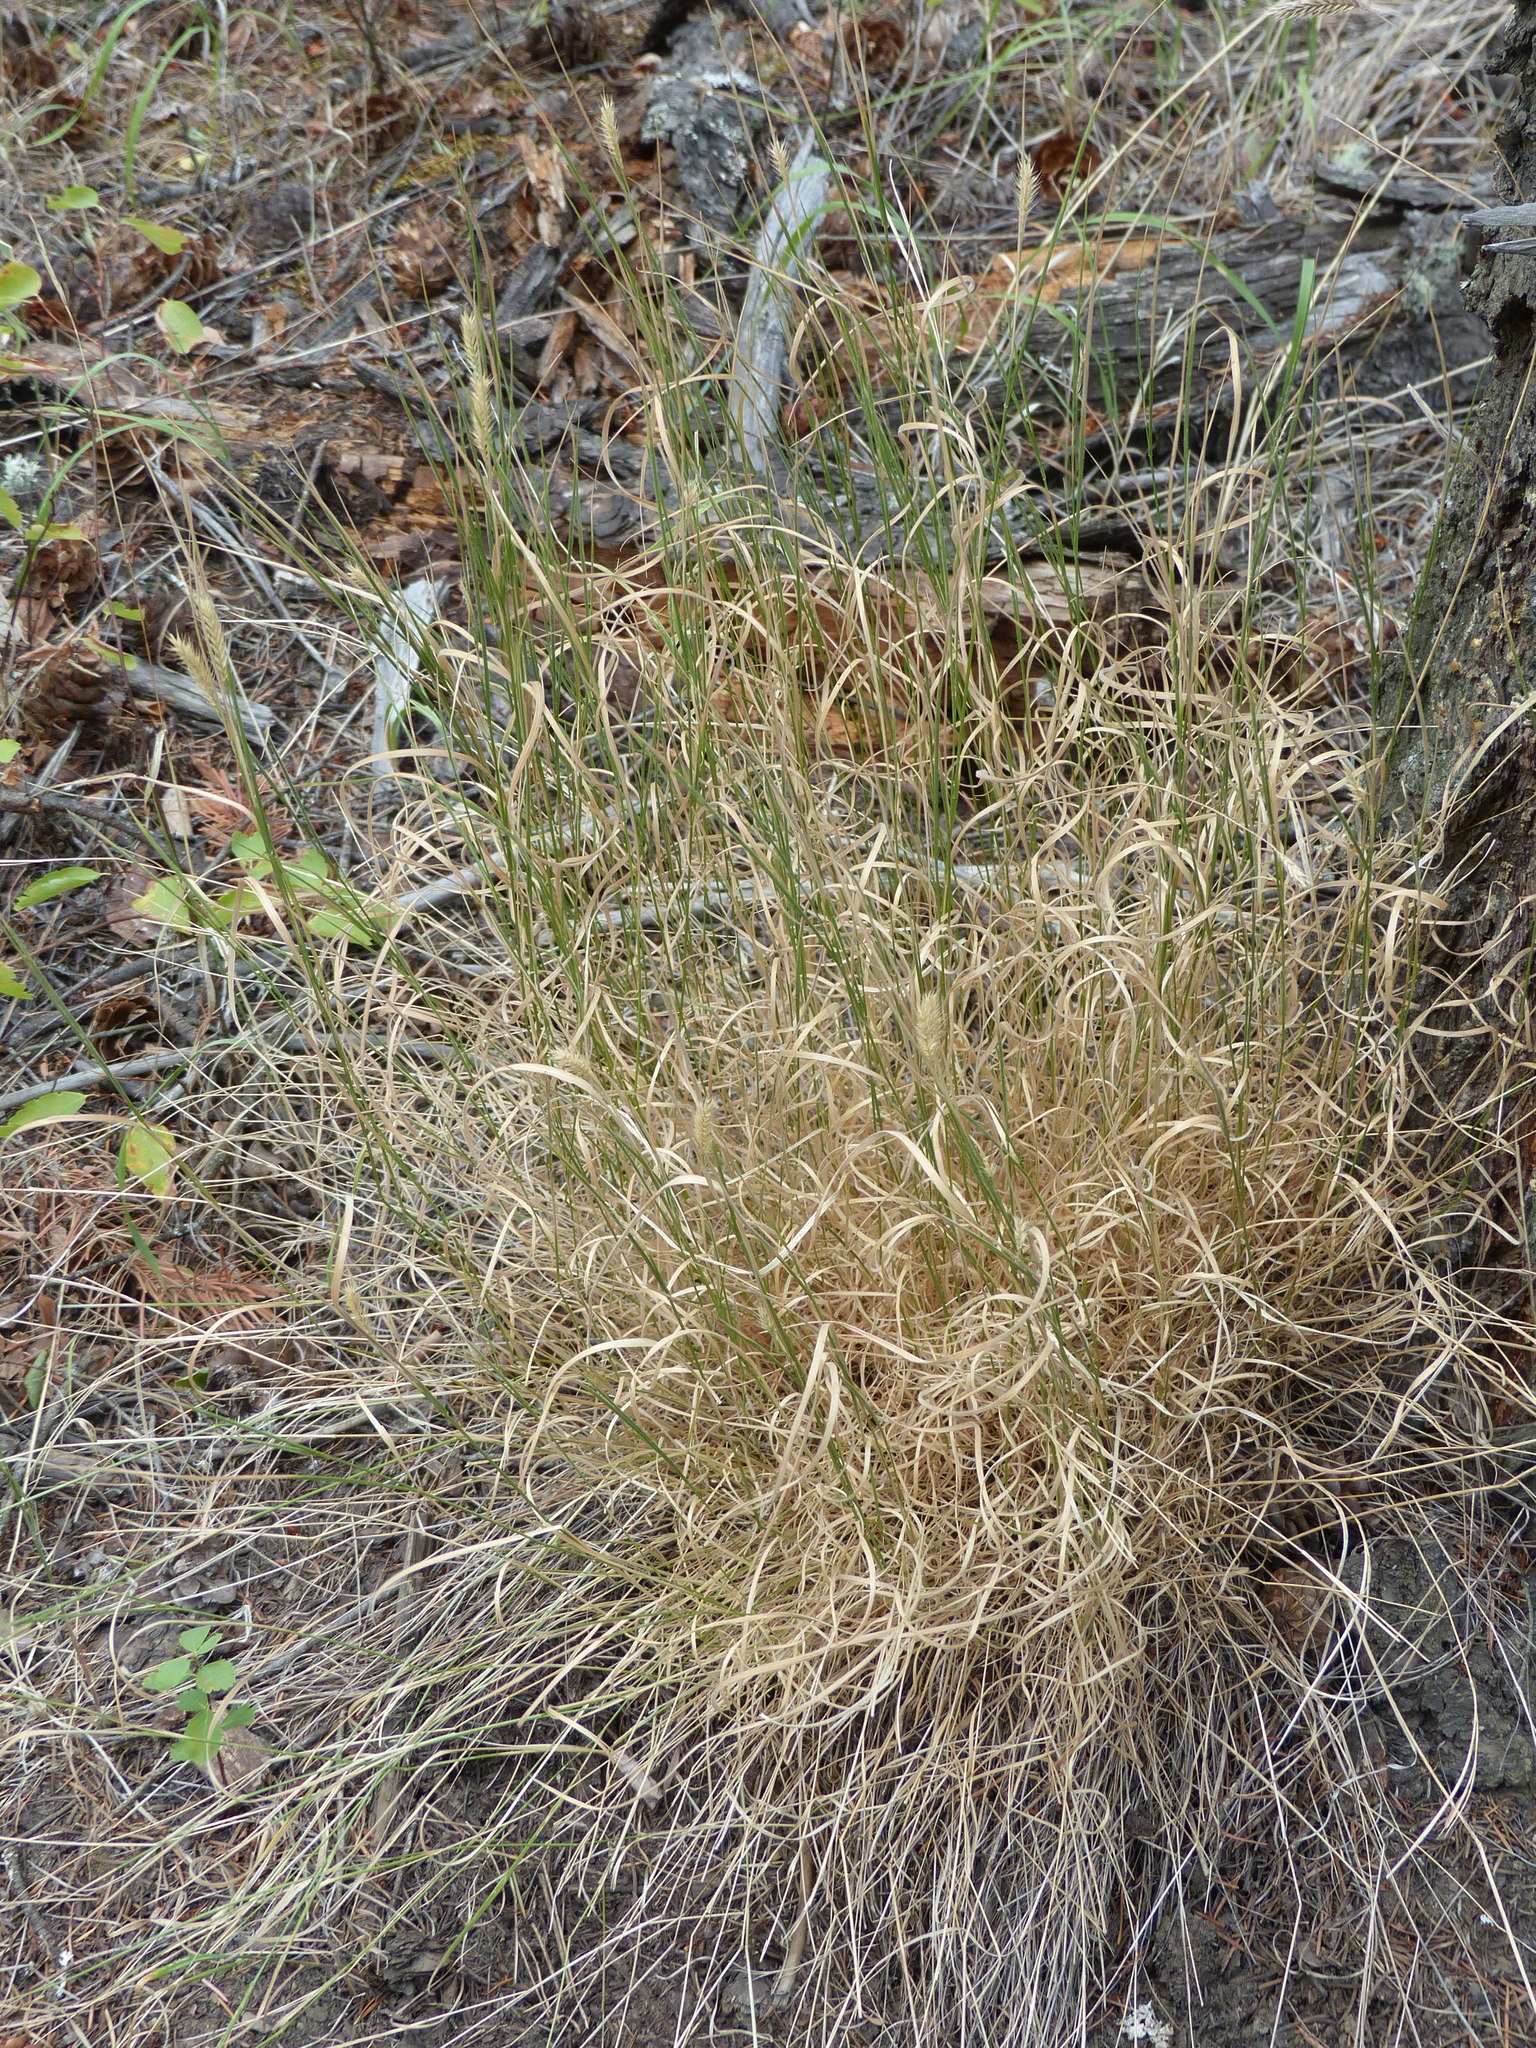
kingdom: Plantae
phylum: Tracheophyta
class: Liliopsida
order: Poales
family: Poaceae
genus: Pseudoroegneria
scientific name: Pseudoroegneria spicata
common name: Bluebunch wheatgrass
